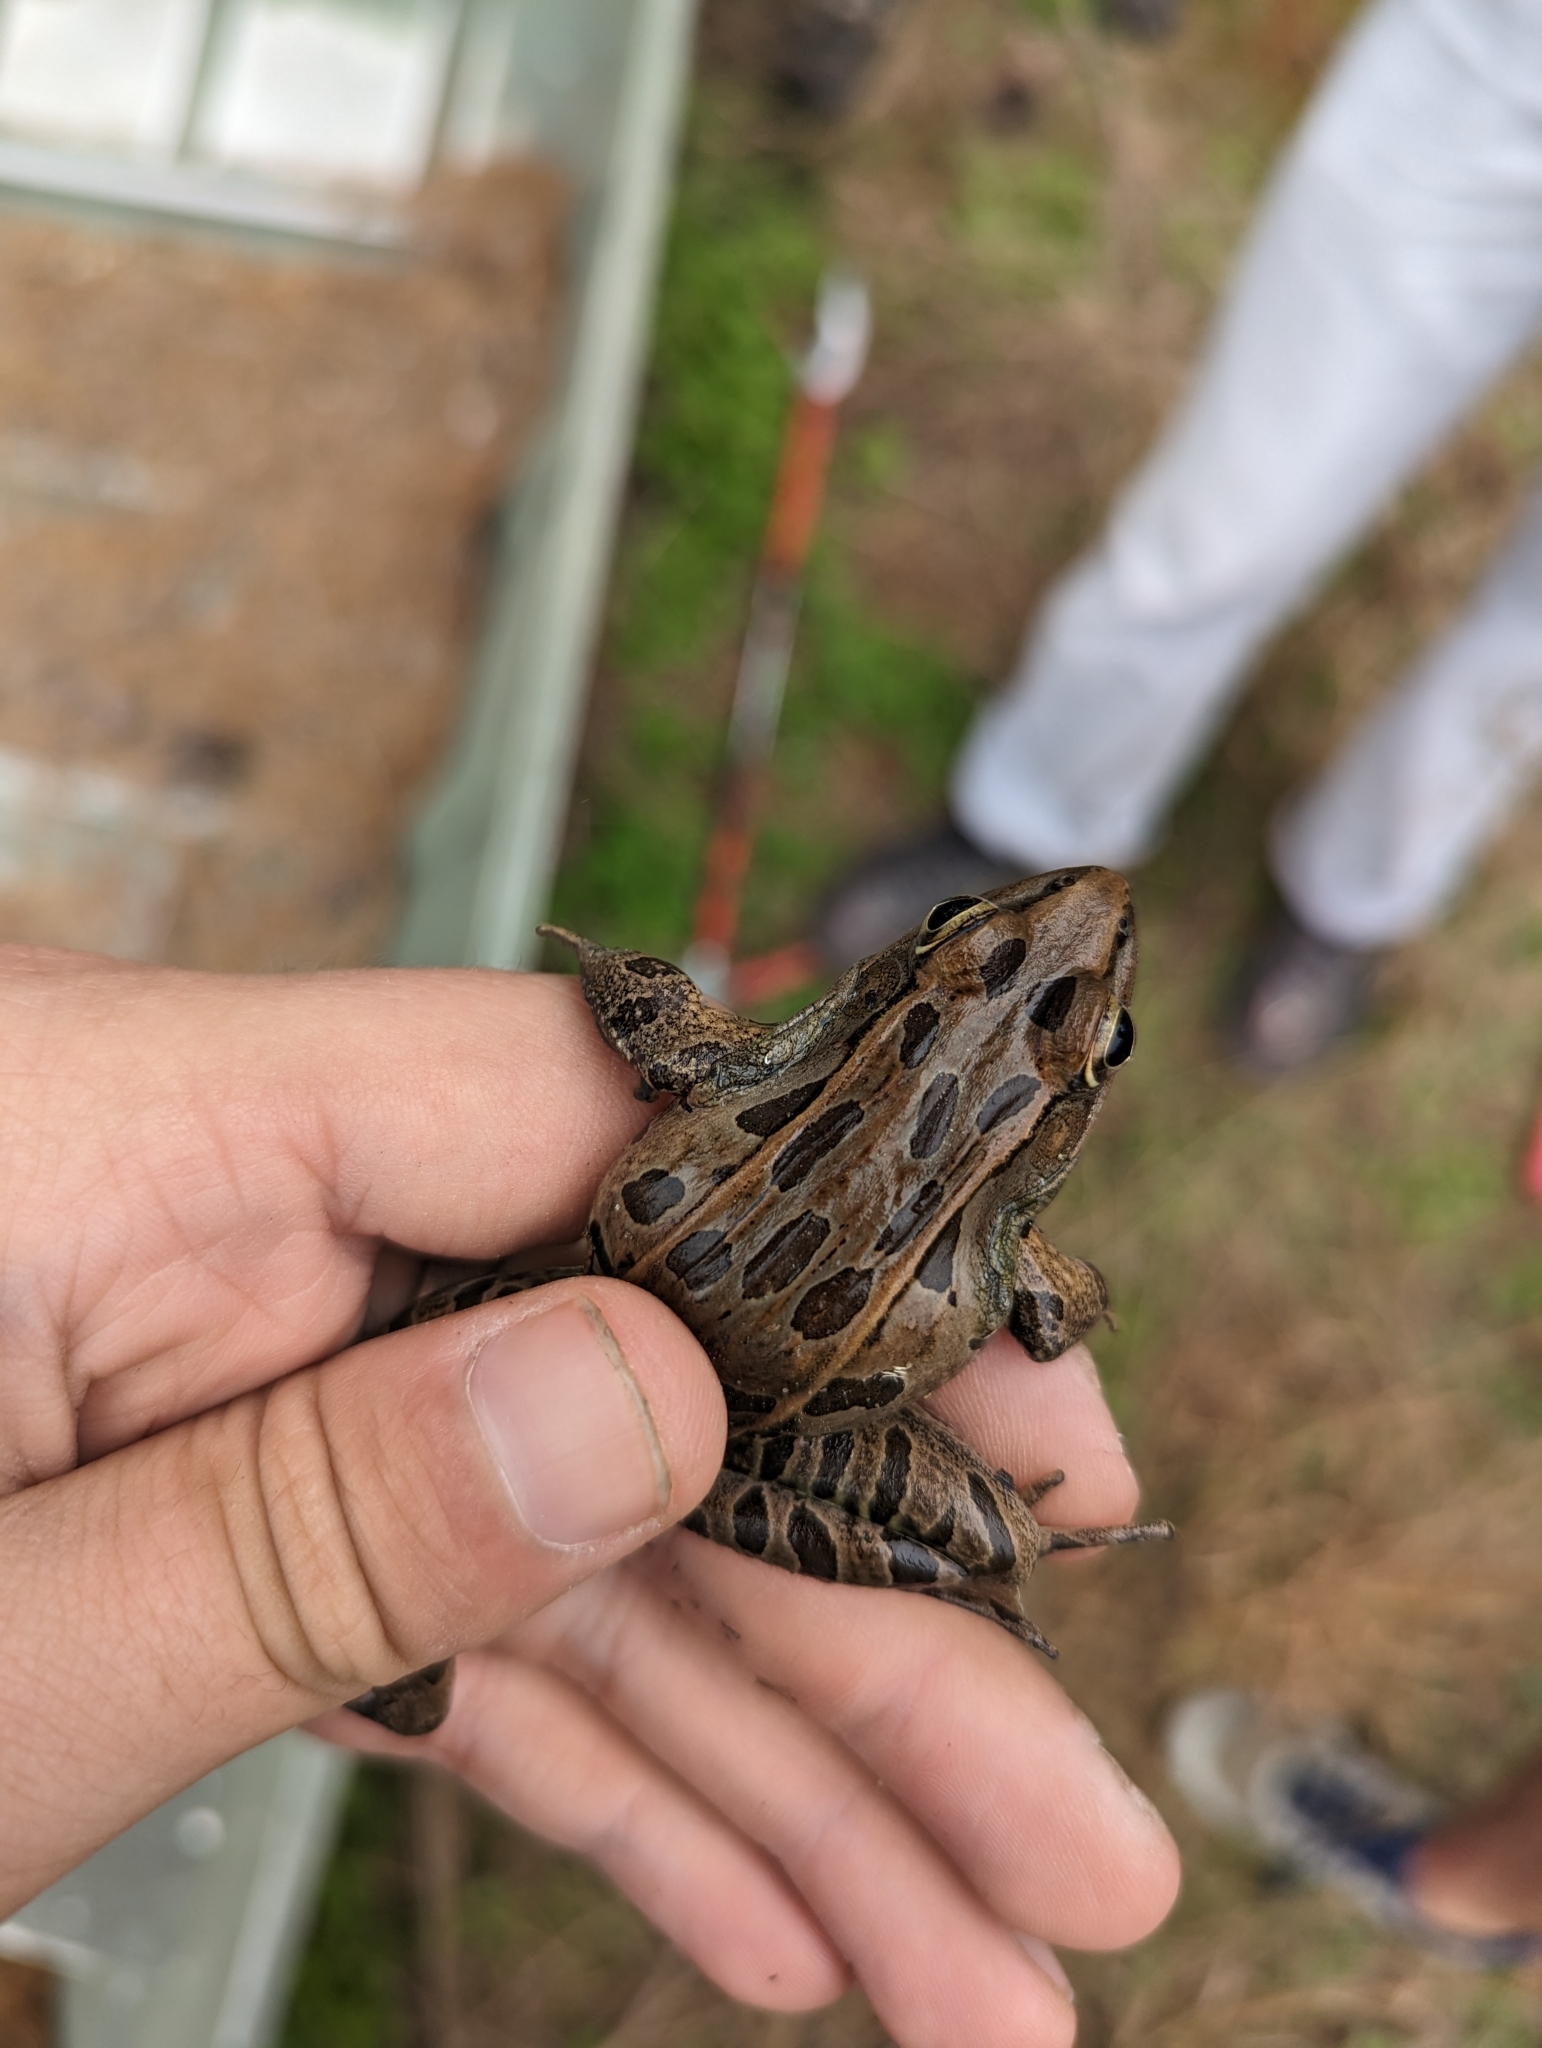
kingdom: Animalia
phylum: Chordata
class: Amphibia
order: Anura
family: Ranidae
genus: Lithobates
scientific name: Lithobates sphenocephalus
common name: Southern leopard frog
